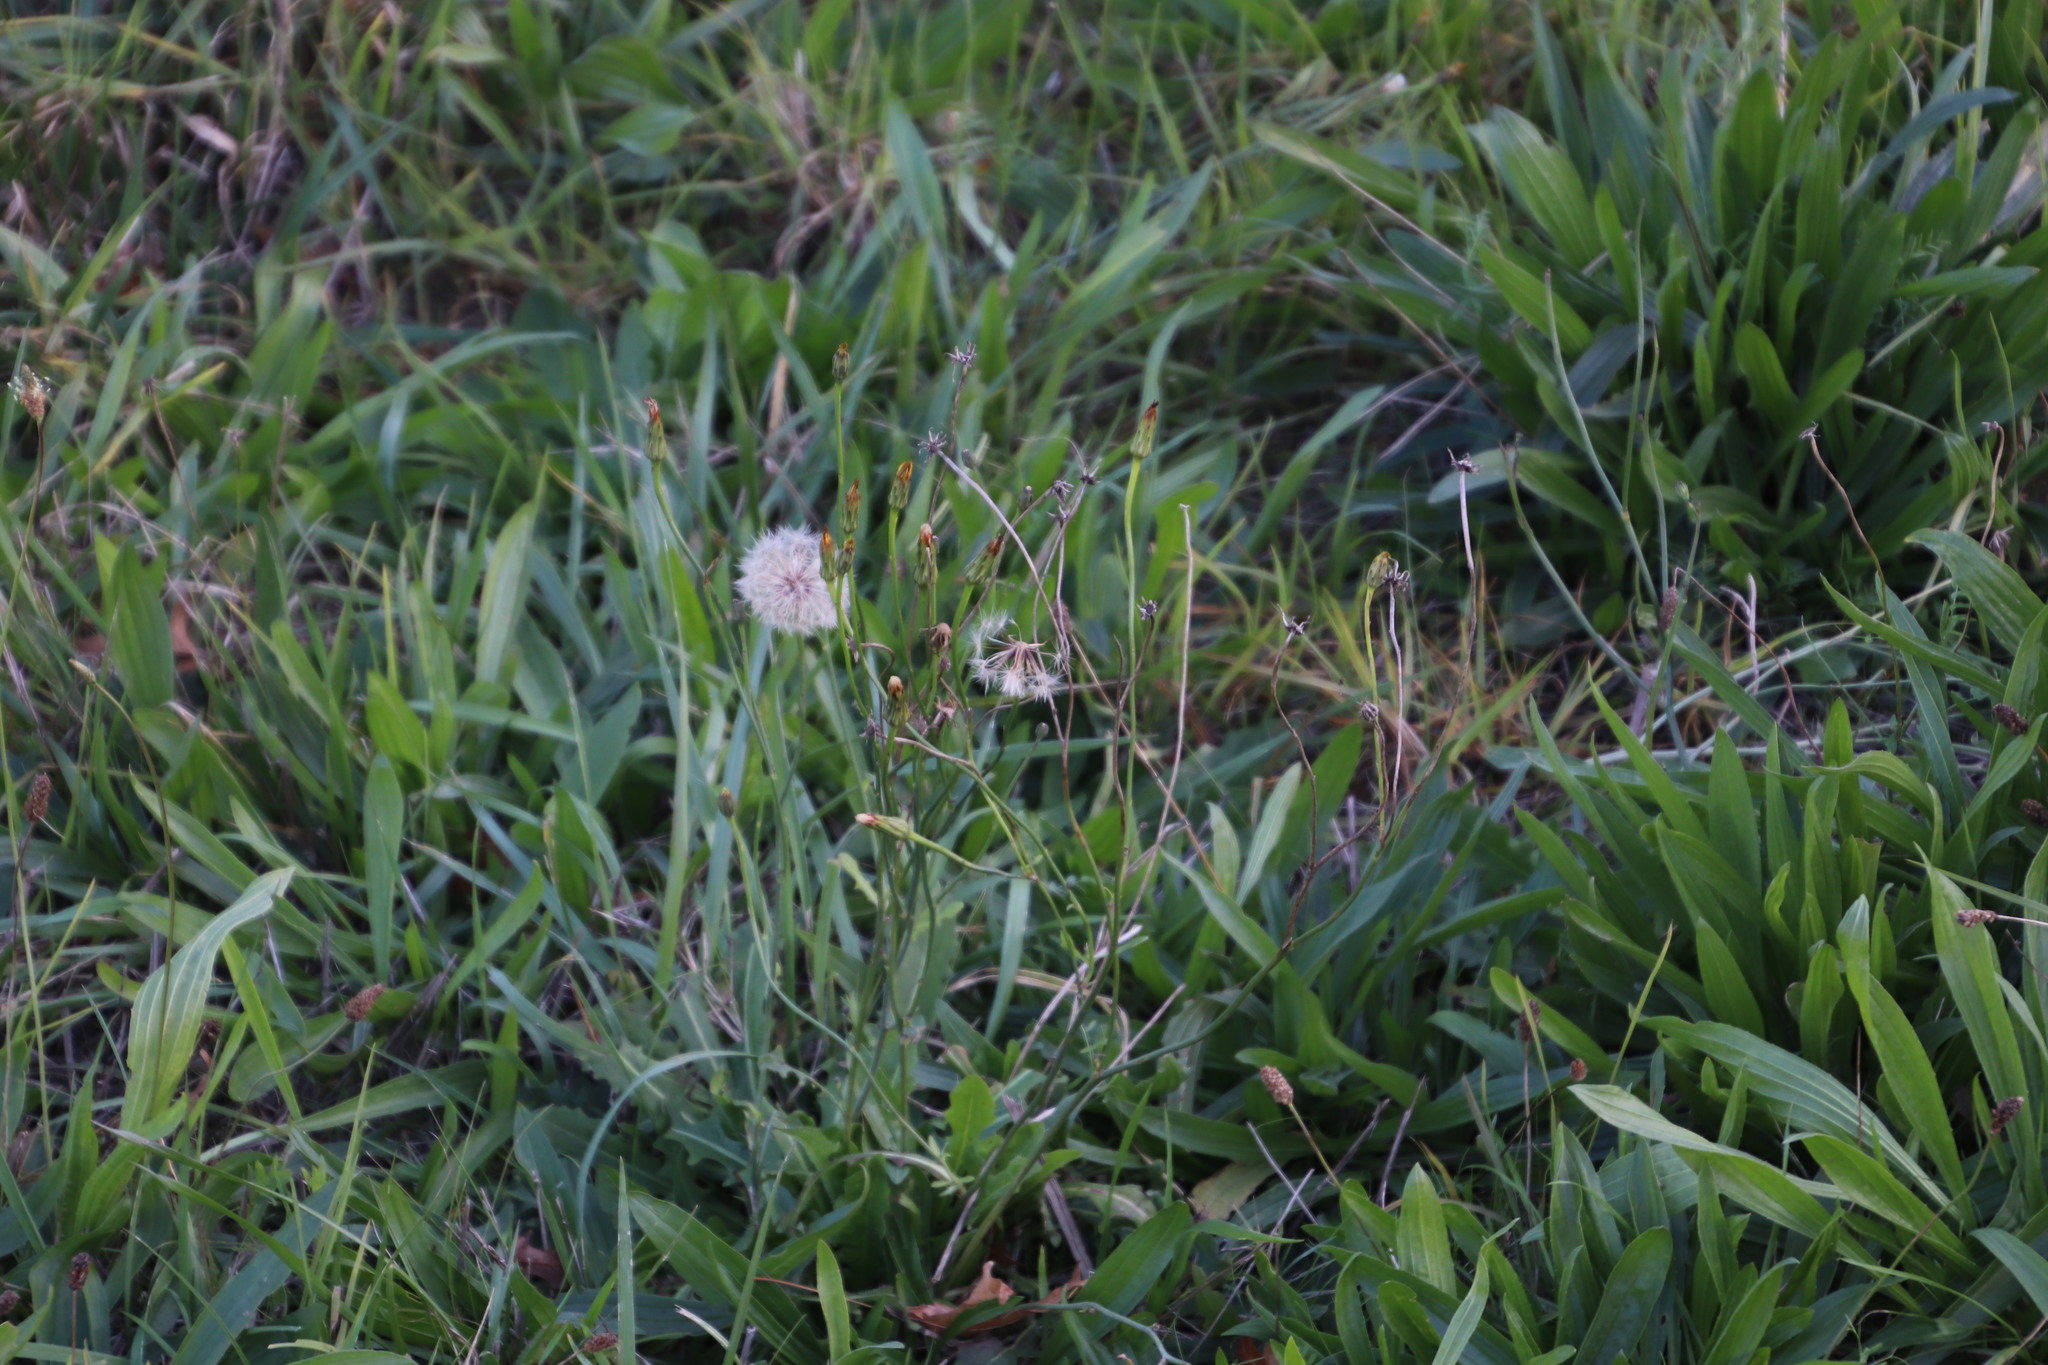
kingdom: Plantae
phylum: Tracheophyta
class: Magnoliopsida
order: Asterales
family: Asteraceae
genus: Hypochaeris
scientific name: Hypochaeris radicata
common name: Flatweed
